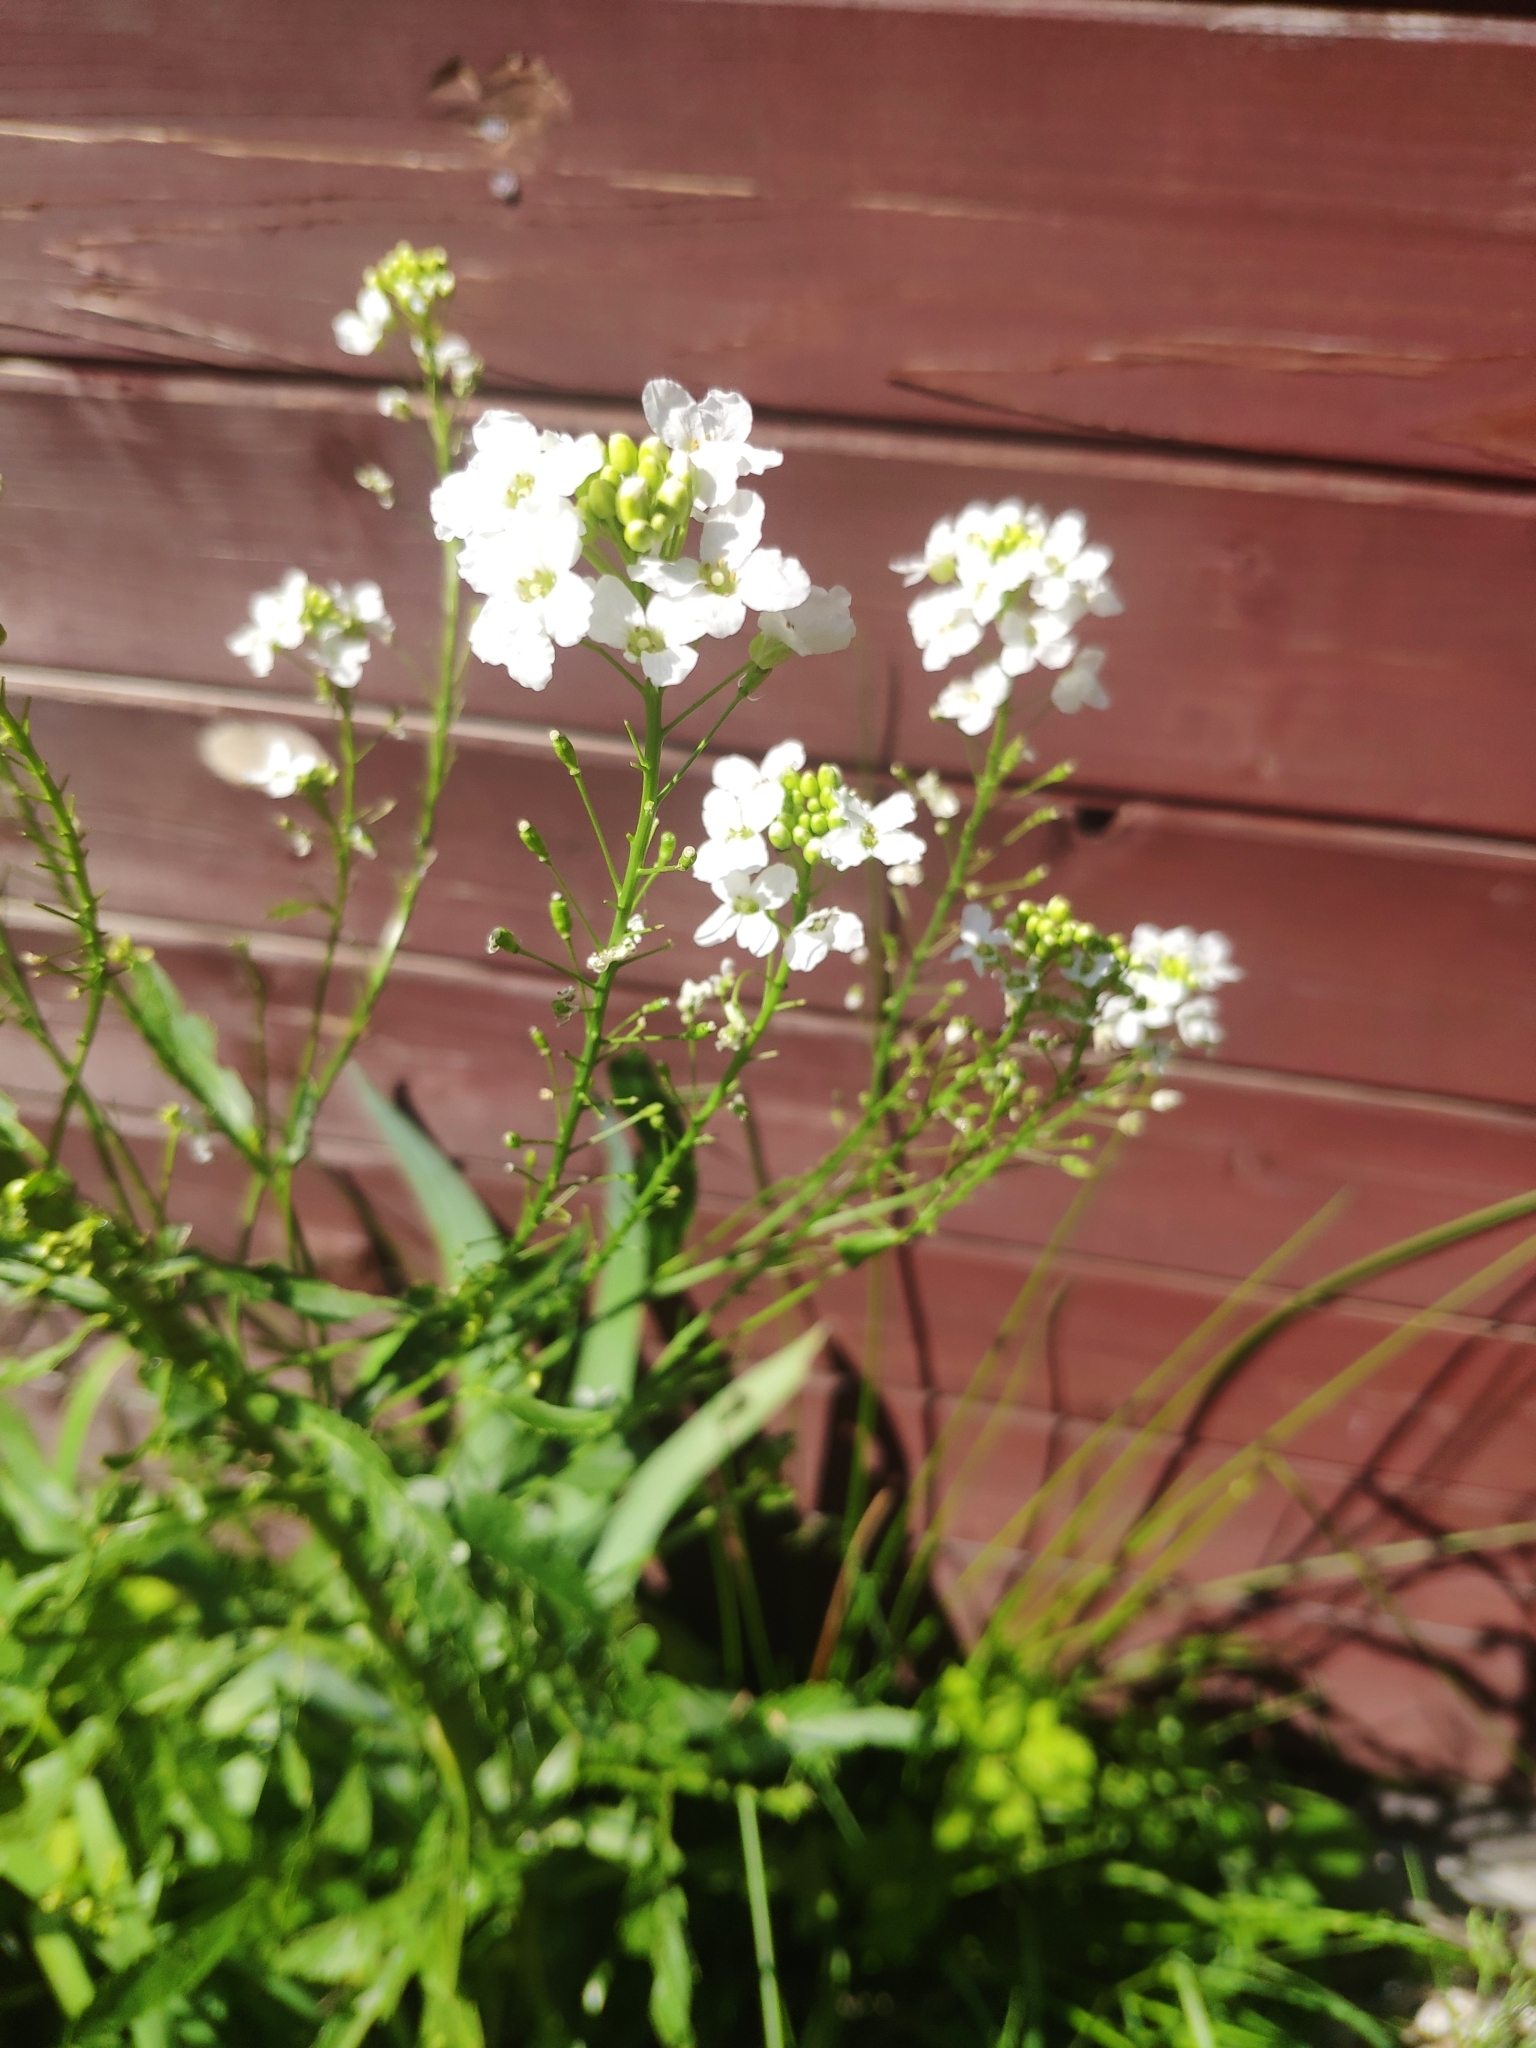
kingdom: Plantae
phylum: Tracheophyta
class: Magnoliopsida
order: Brassicales
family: Brassicaceae
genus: Armoracia
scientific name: Armoracia rusticana
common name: Horseradish
